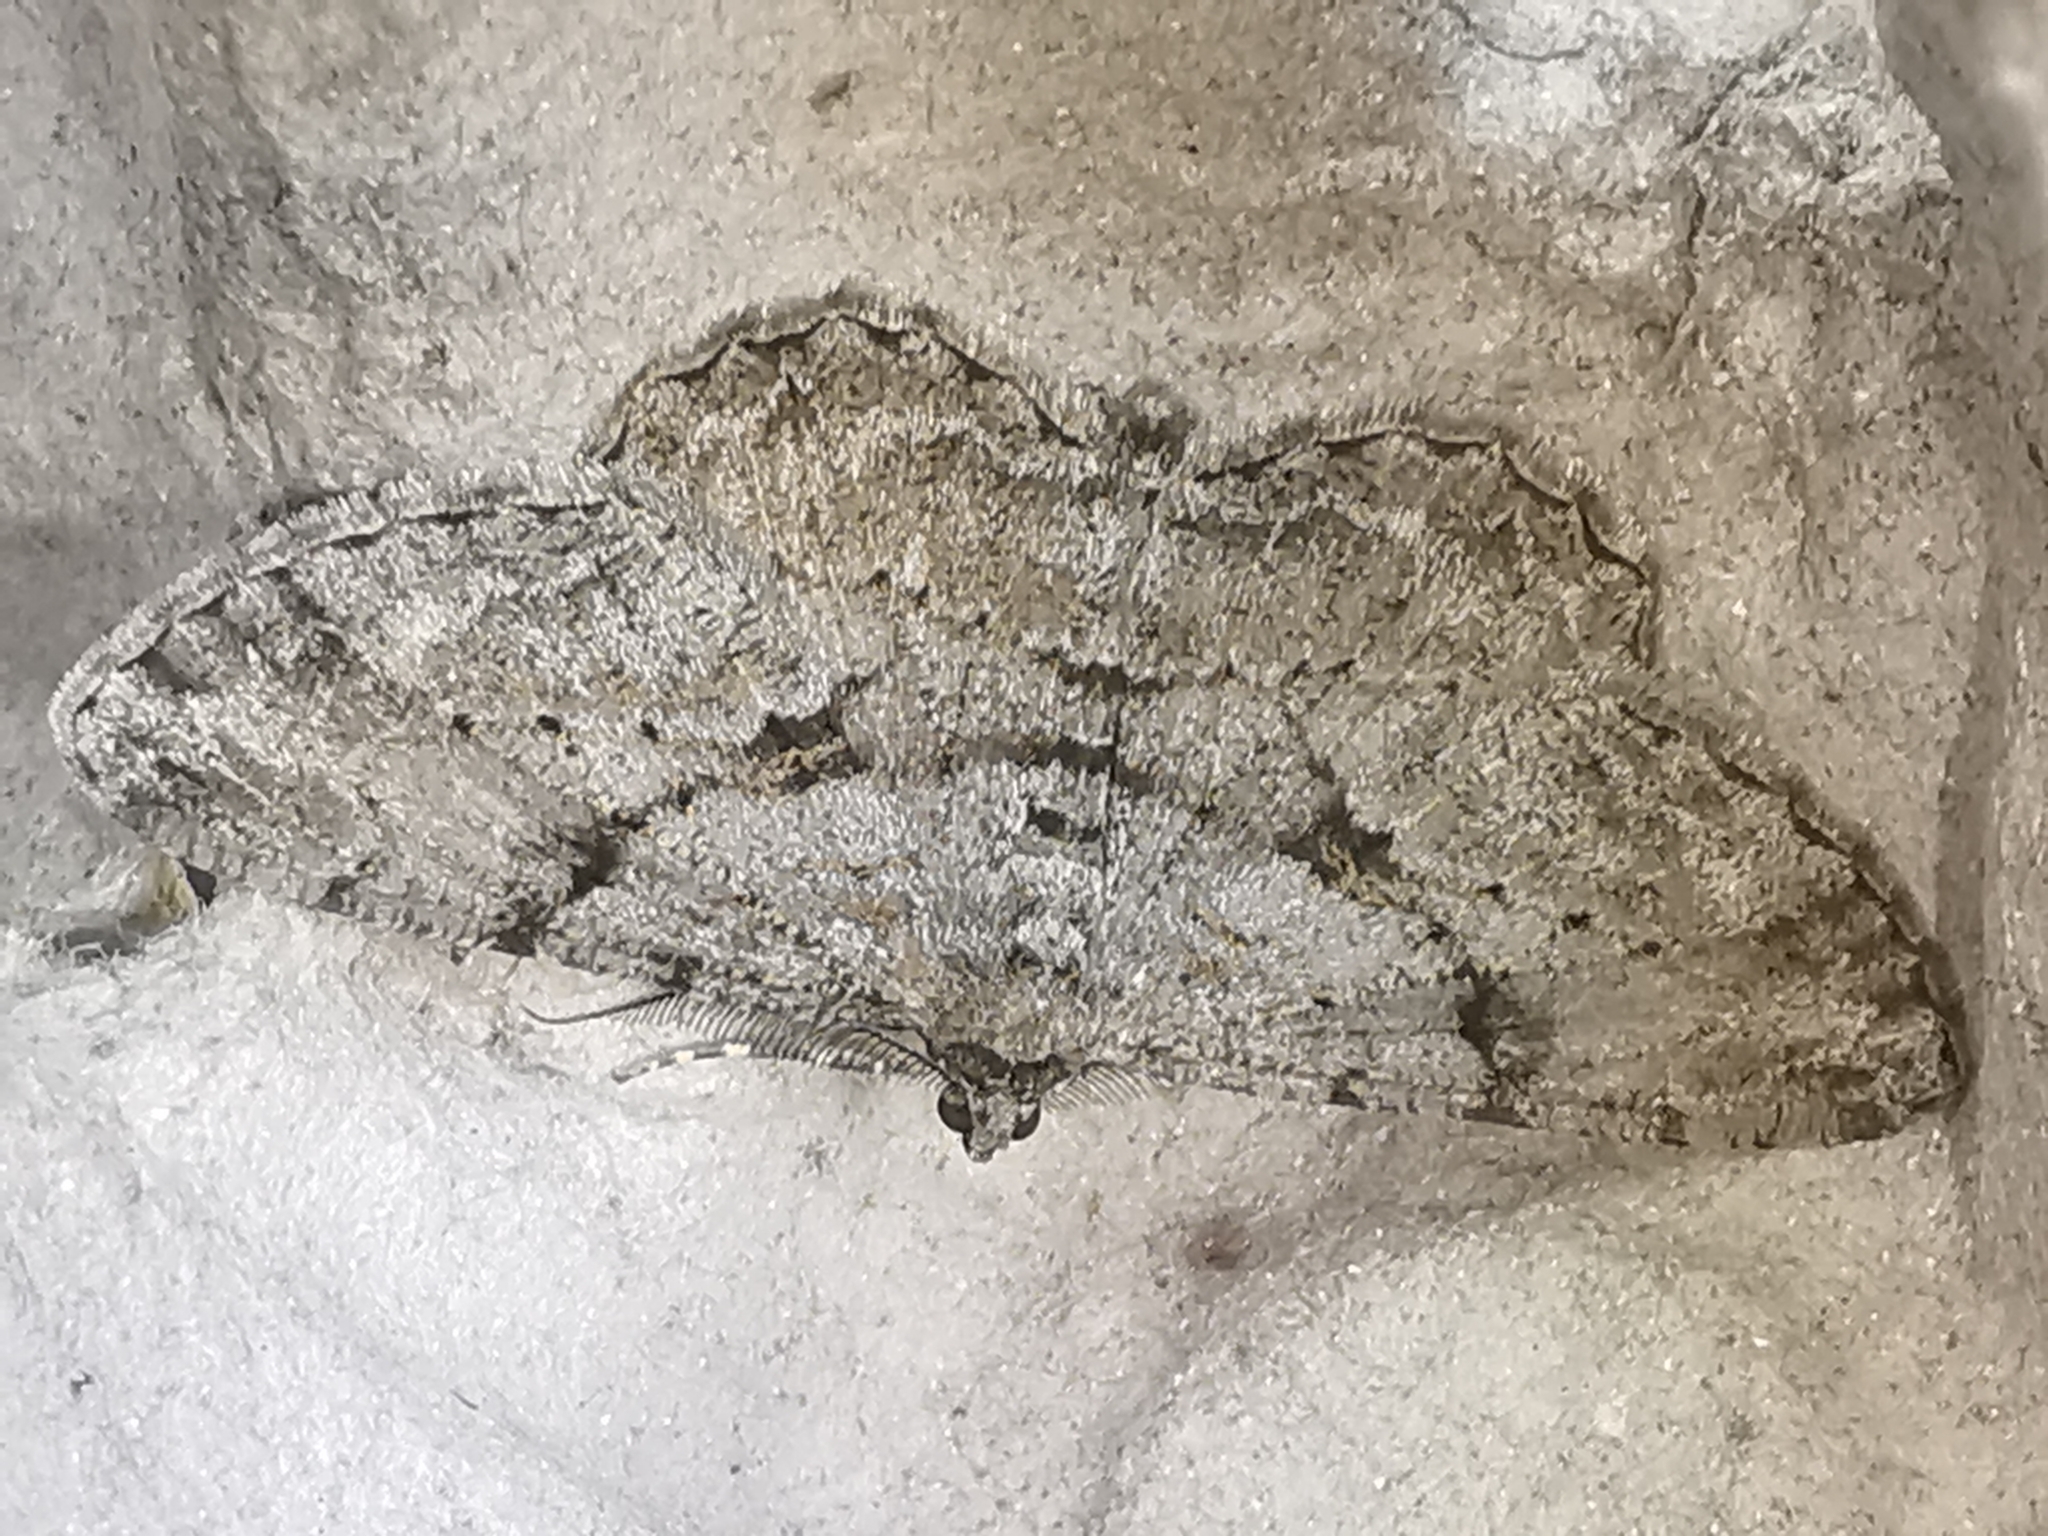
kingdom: Animalia
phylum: Arthropoda
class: Insecta
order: Lepidoptera
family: Geometridae
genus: Peribatodes
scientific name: Peribatodes rhomboidaria
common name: Willow beauty
